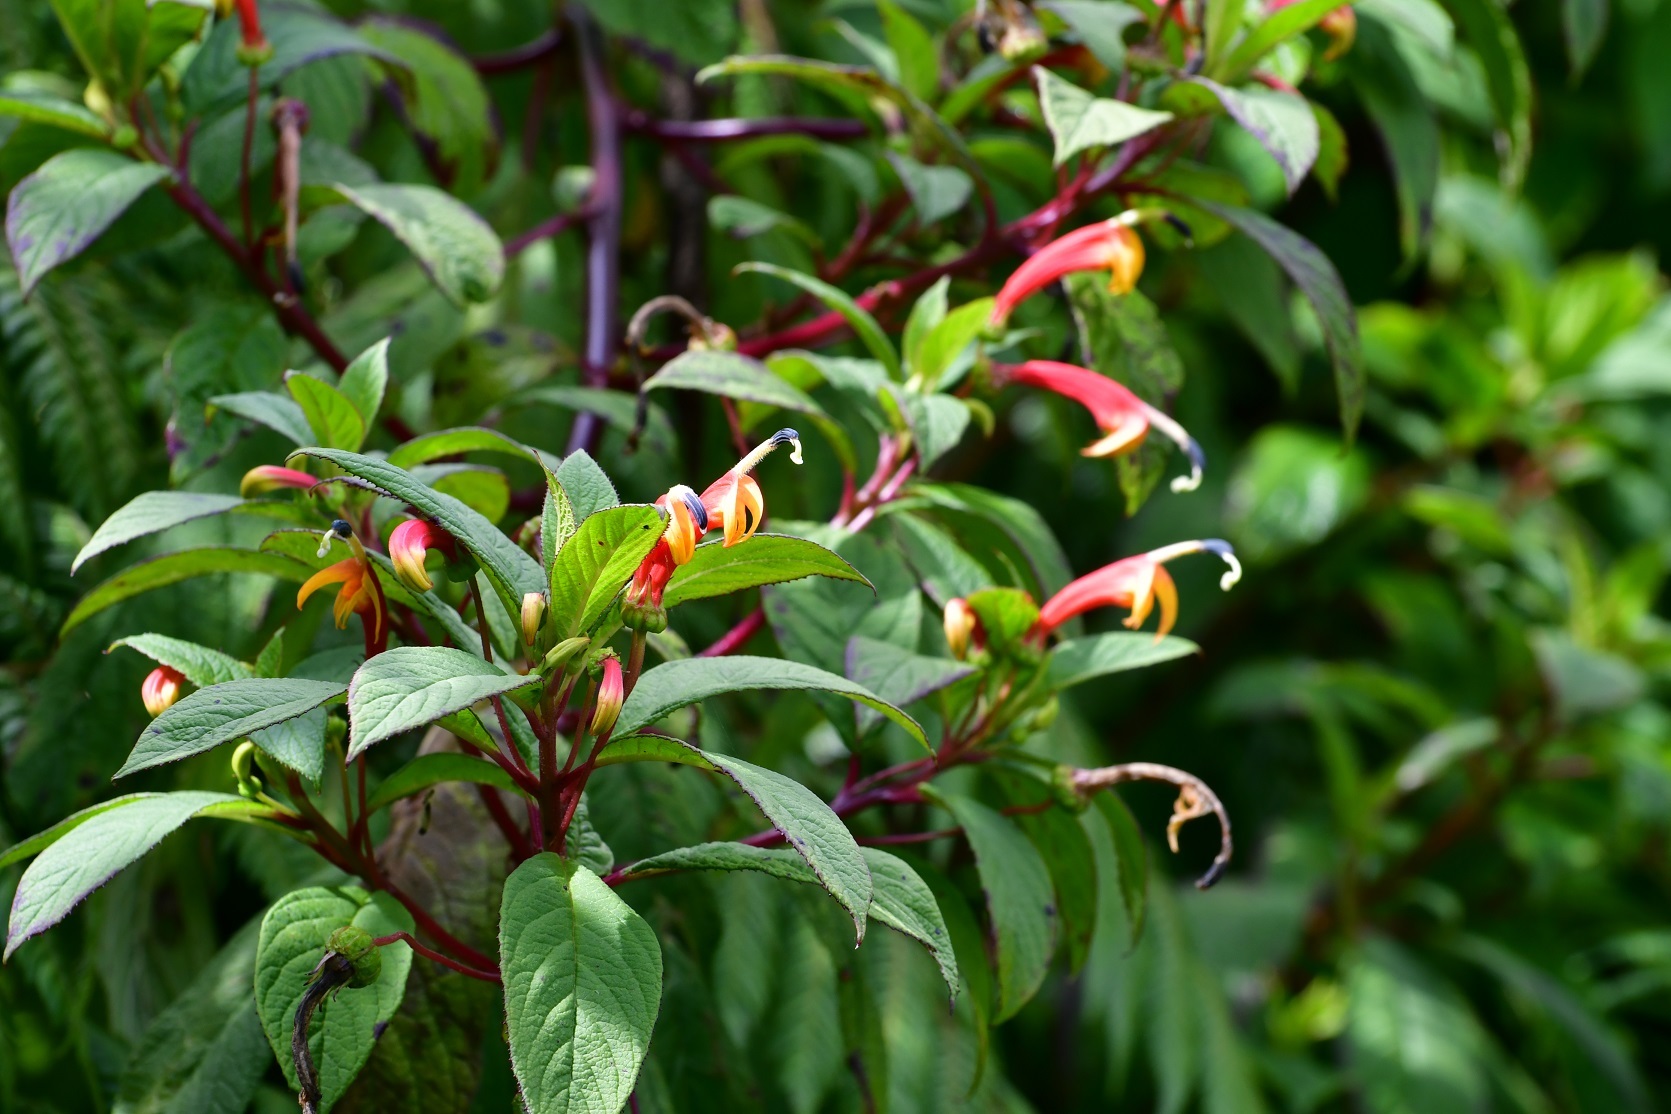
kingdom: Plantae
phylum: Tracheophyta
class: Magnoliopsida
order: Asterales
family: Campanulaceae
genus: Centropogon
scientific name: Centropogon grandidentatus
